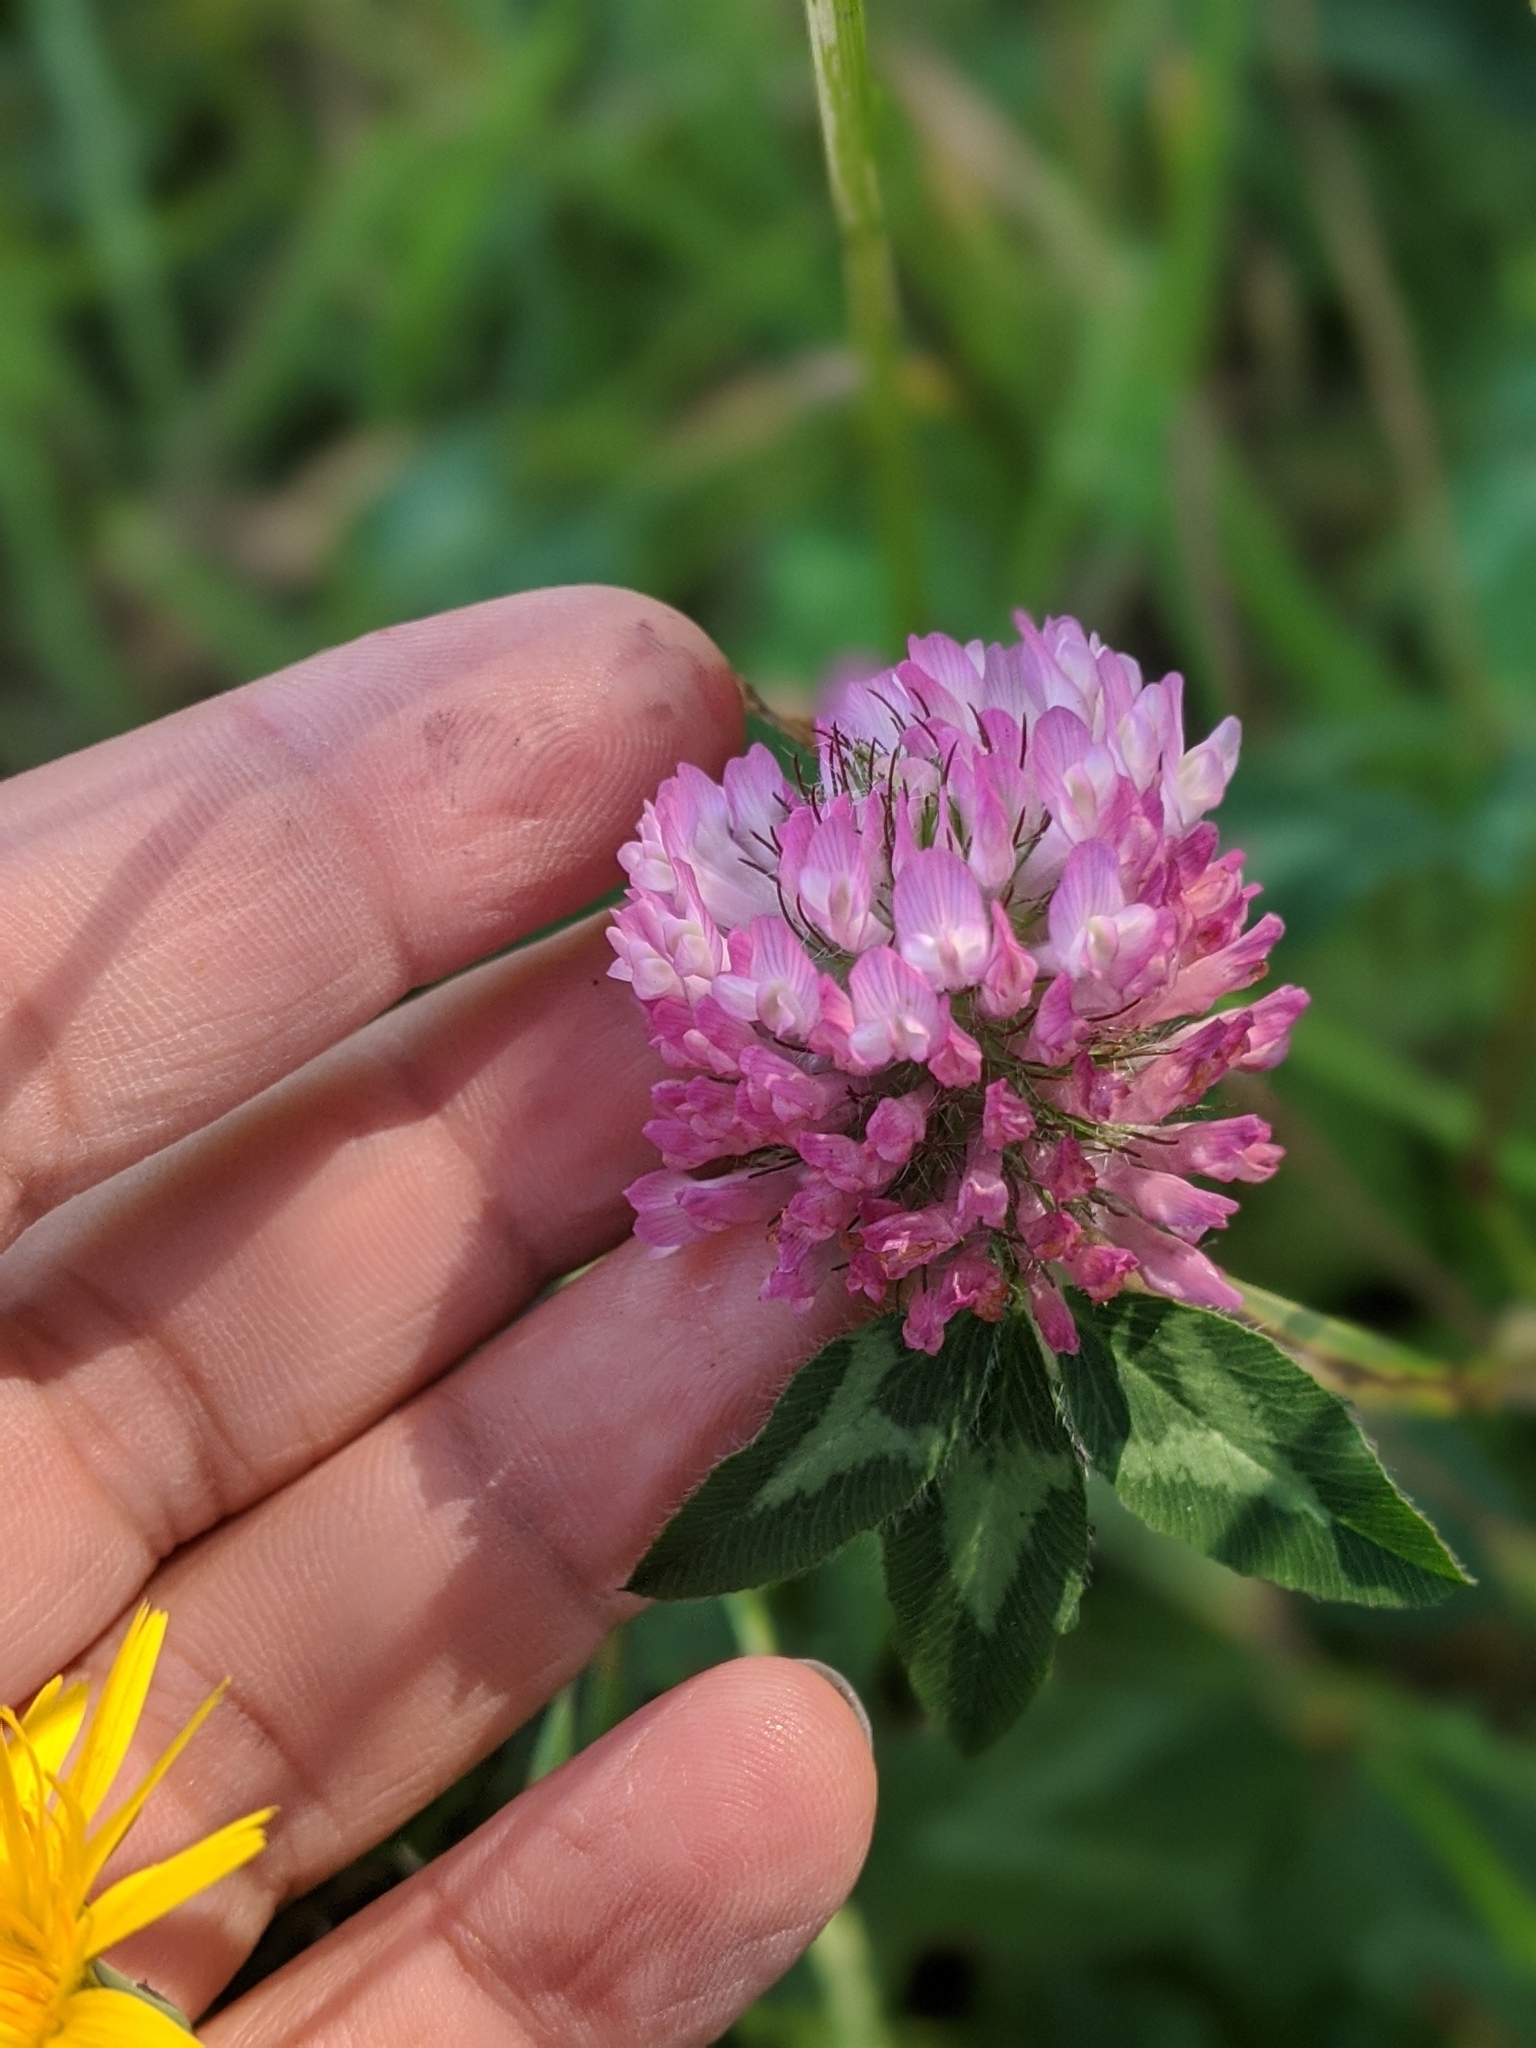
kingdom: Plantae
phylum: Tracheophyta
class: Magnoliopsida
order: Fabales
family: Fabaceae
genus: Trifolium
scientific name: Trifolium pratense
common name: Red clover
